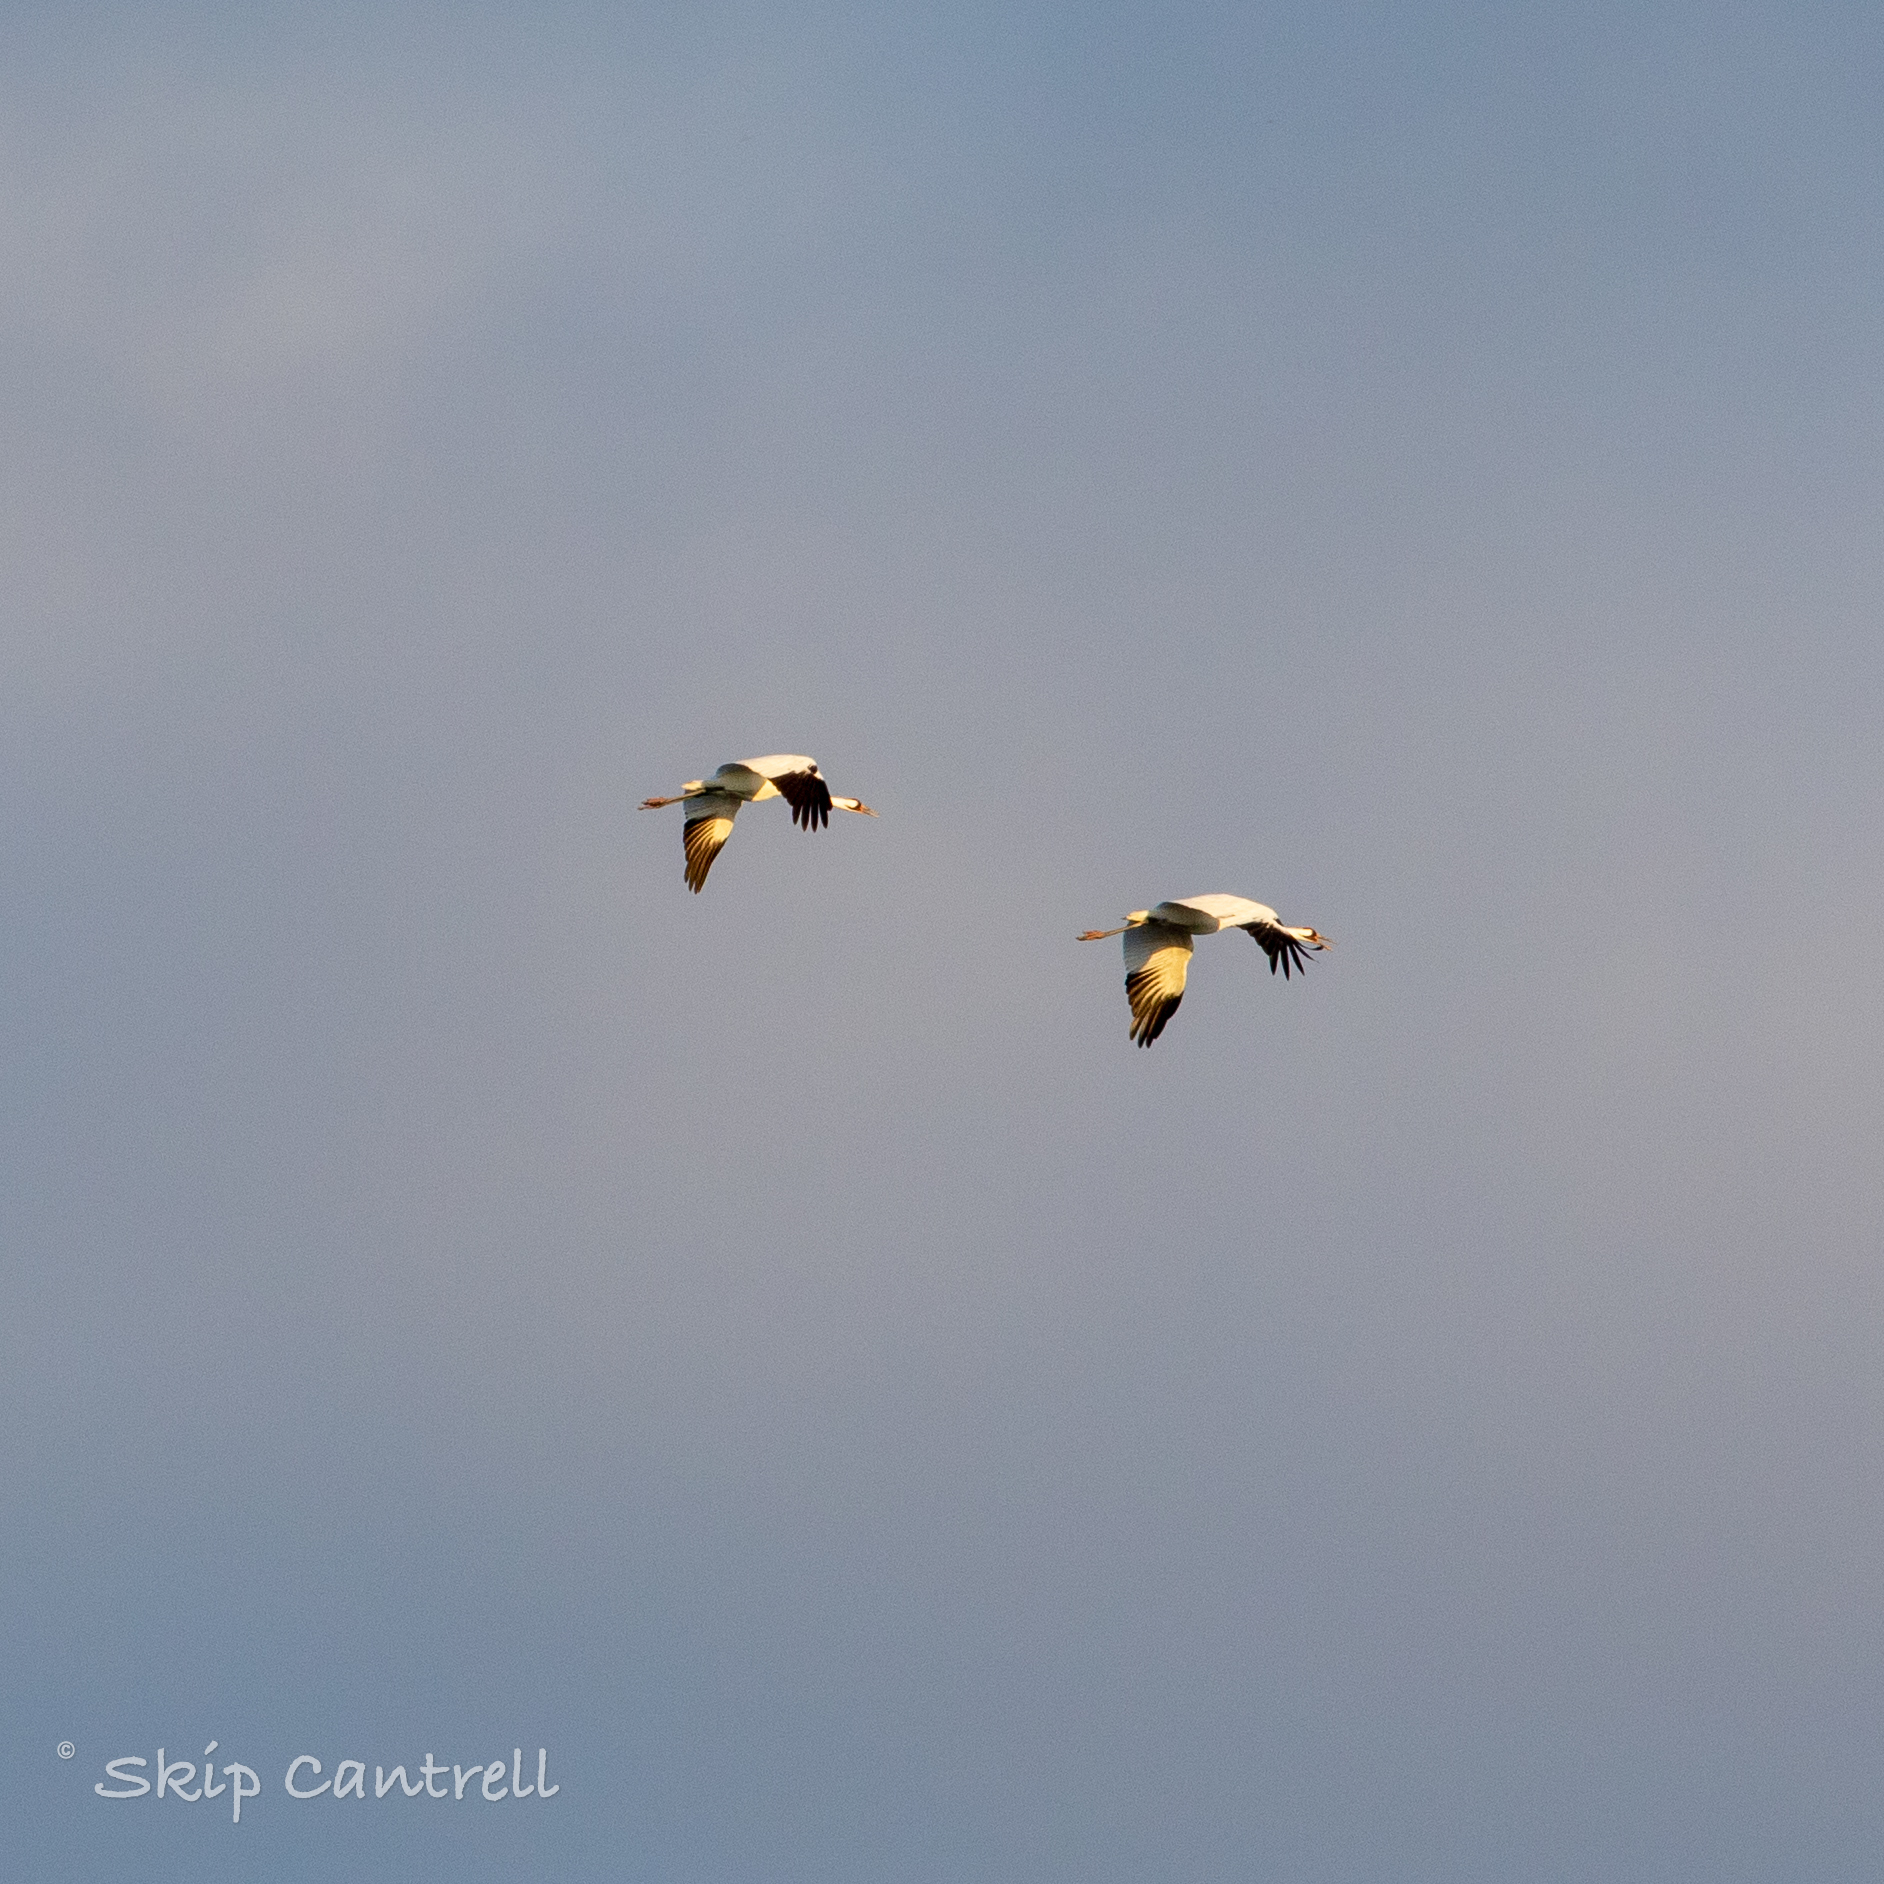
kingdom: Animalia
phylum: Chordata
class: Aves
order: Gruiformes
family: Gruidae
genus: Grus
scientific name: Grus americana
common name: Whooping crane
